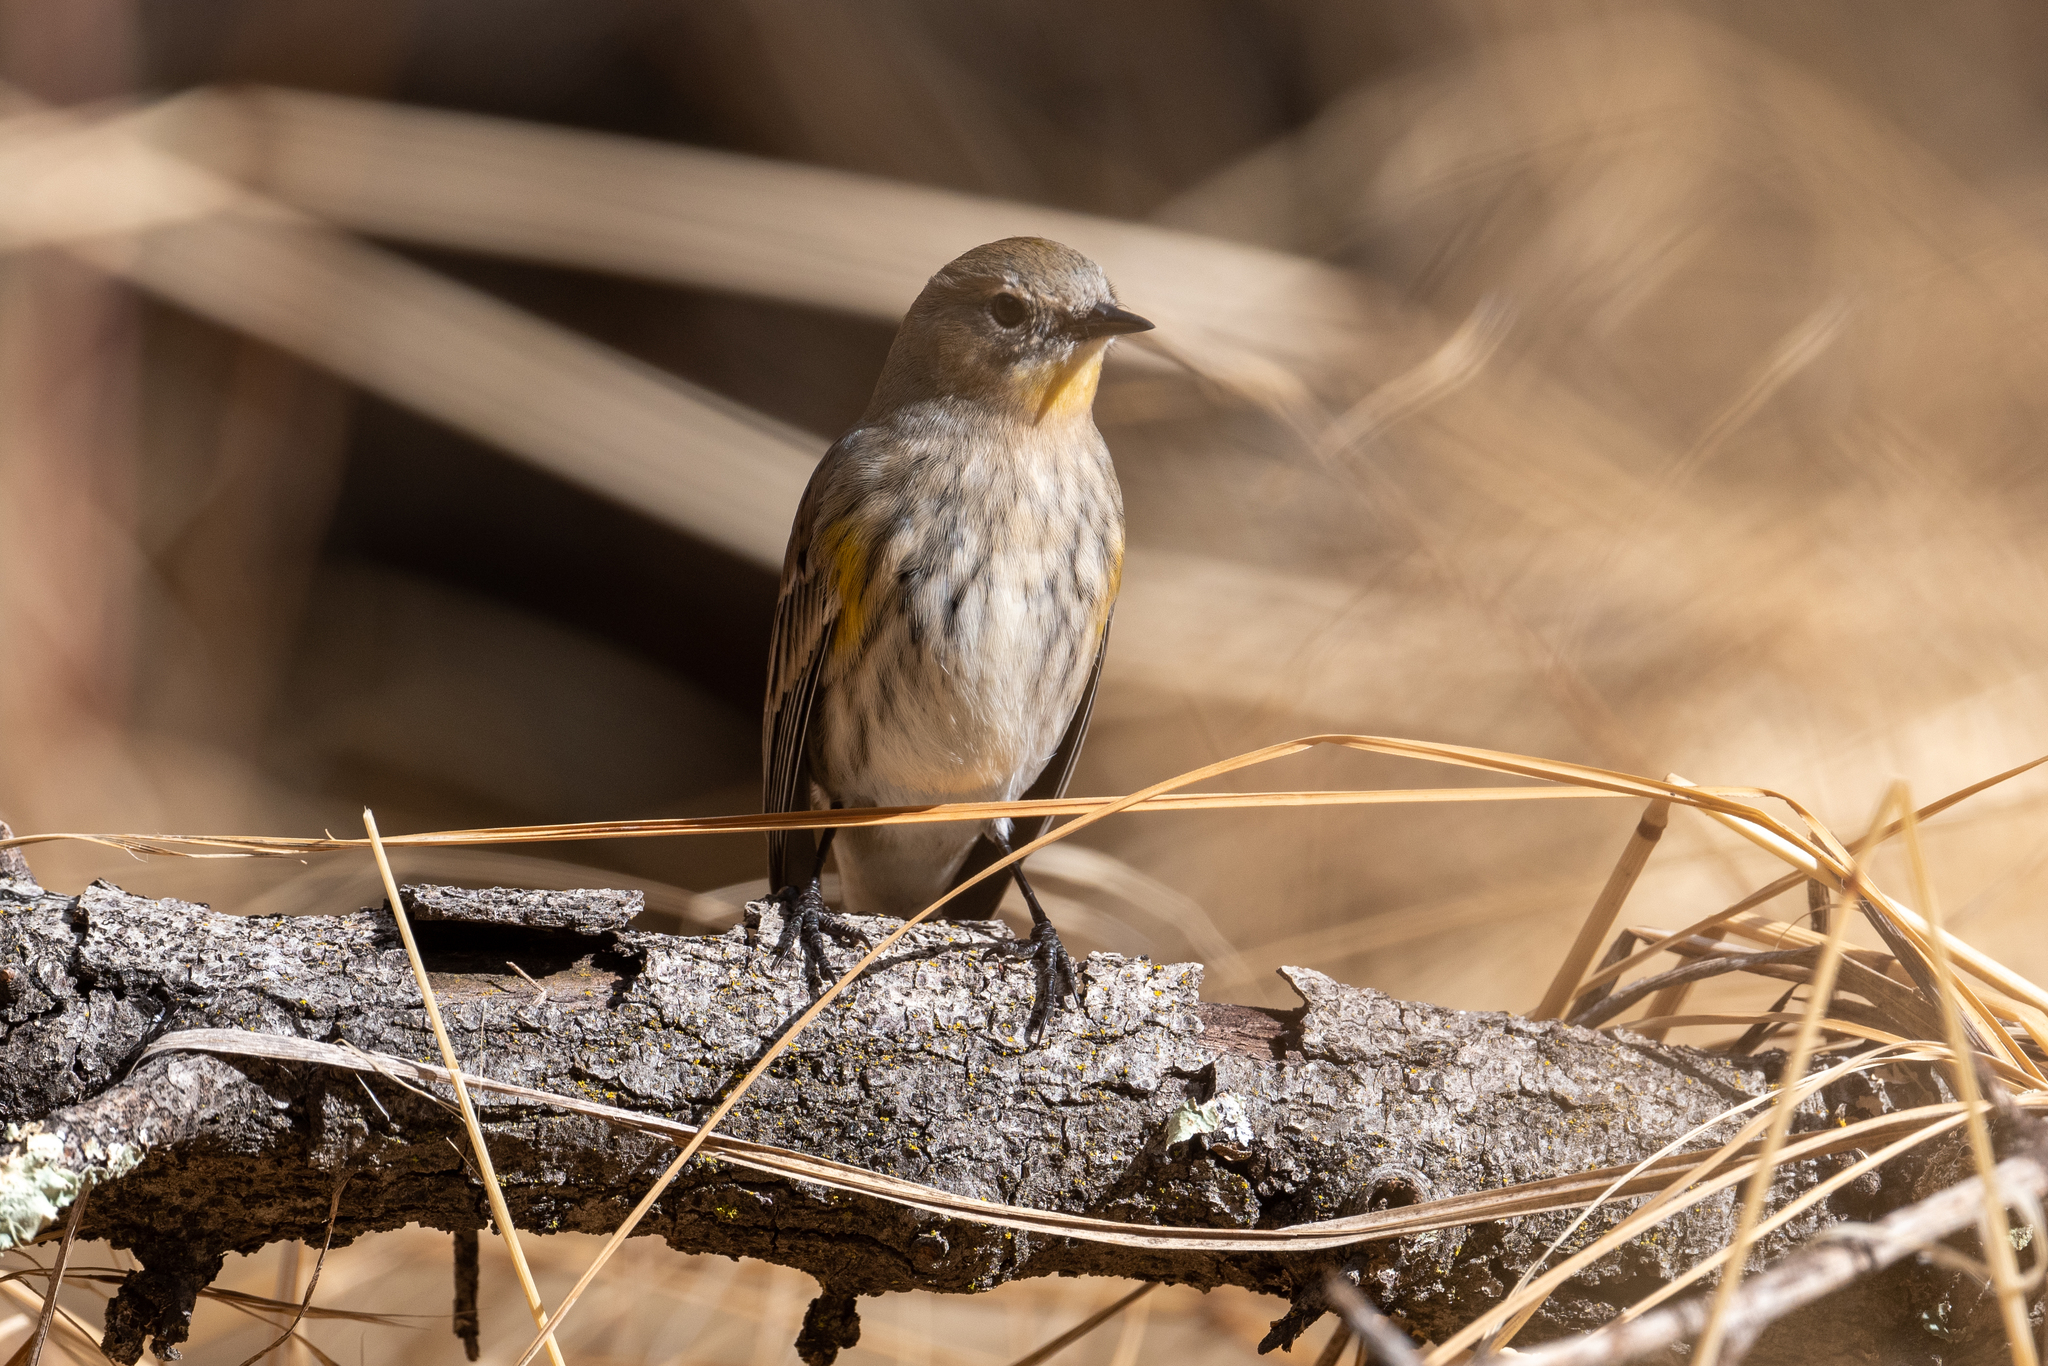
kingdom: Animalia
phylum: Chordata
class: Aves
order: Passeriformes
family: Parulidae
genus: Setophaga
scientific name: Setophaga coronata
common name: Myrtle warbler
